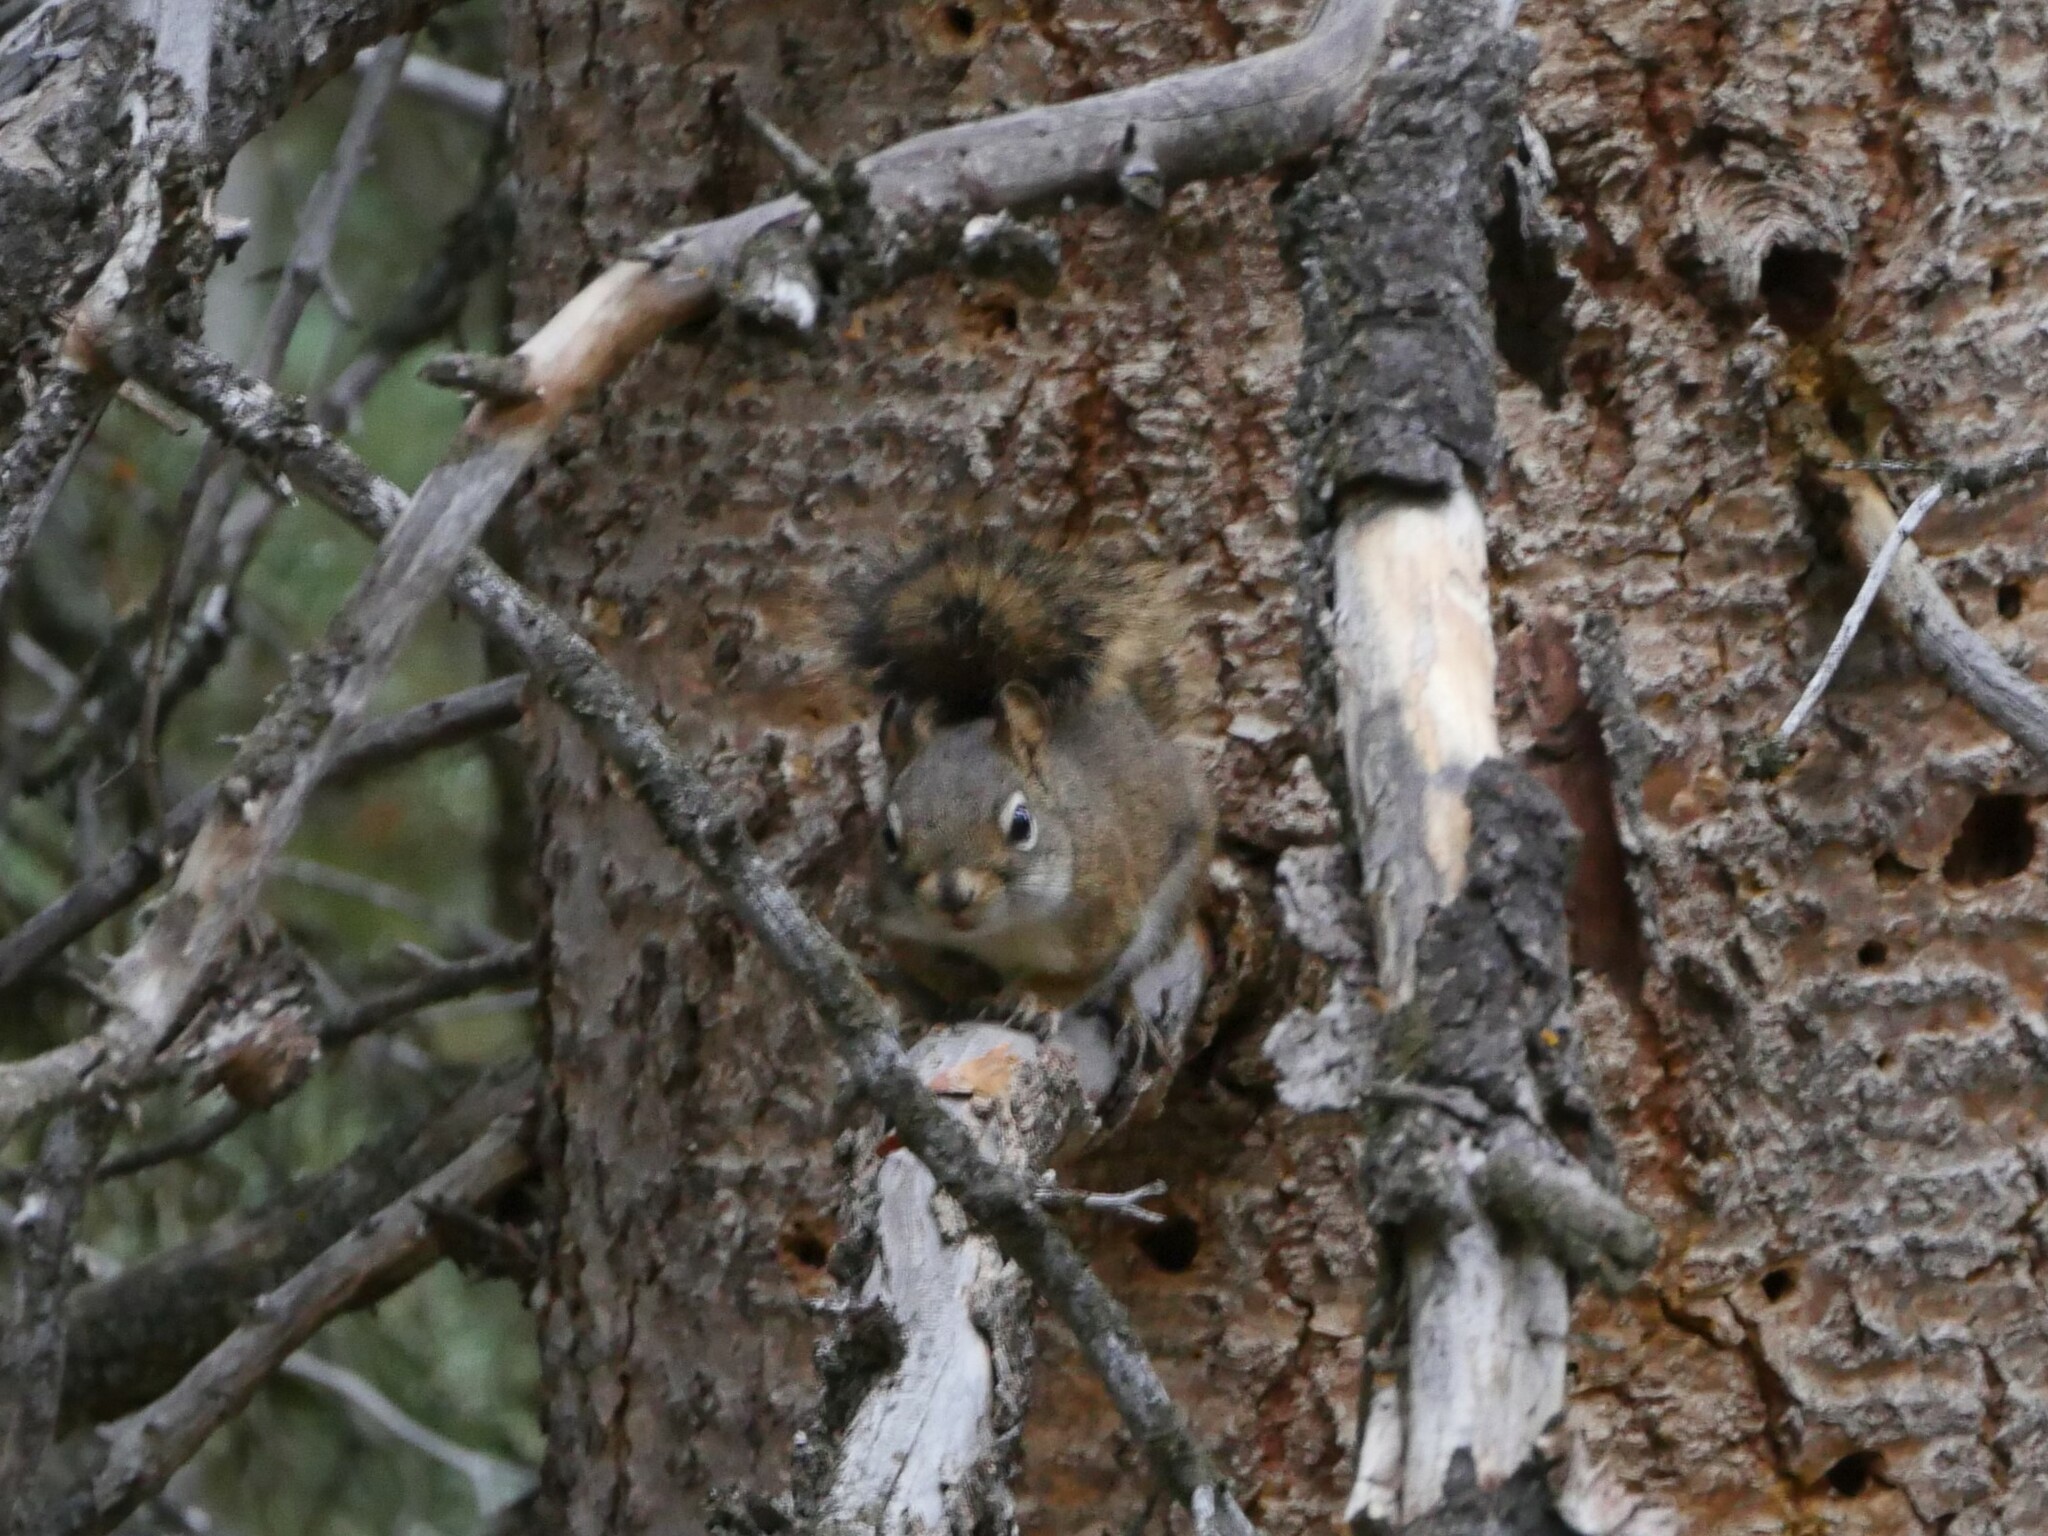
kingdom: Animalia
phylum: Chordata
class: Mammalia
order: Rodentia
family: Sciuridae
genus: Tamiasciurus
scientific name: Tamiasciurus hudsonicus
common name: Red squirrel
